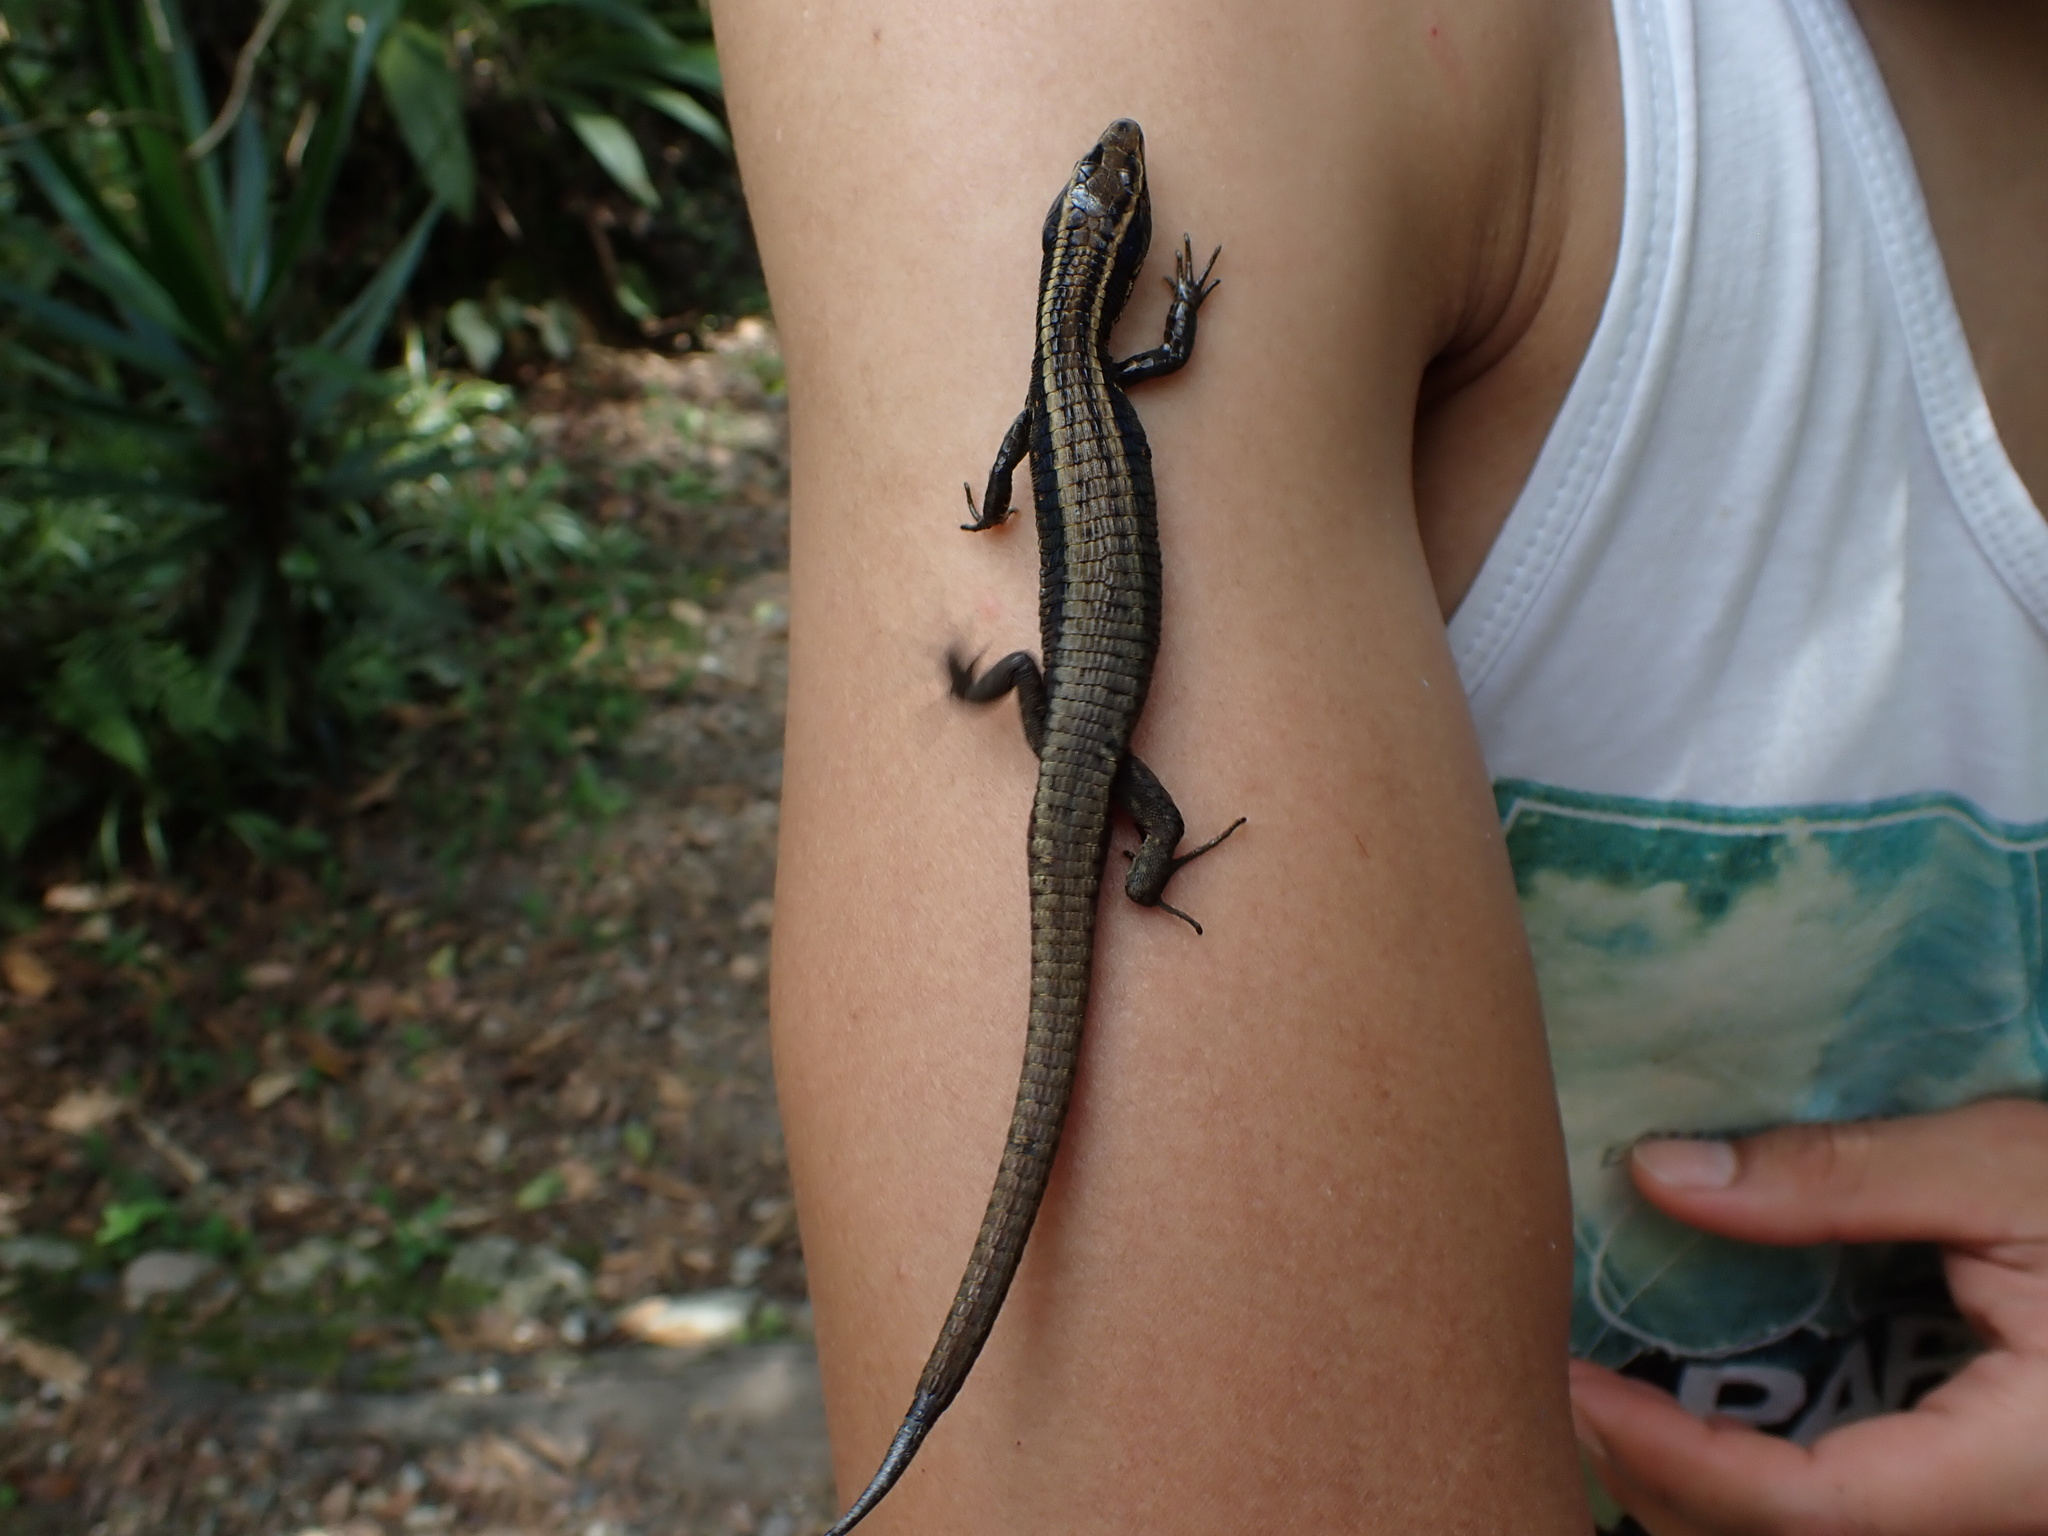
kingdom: Animalia
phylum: Chordata
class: Squamata
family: Gymnophthalmidae
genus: Cercosaura
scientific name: Cercosaura anomala
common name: Anomalous cercosaura
